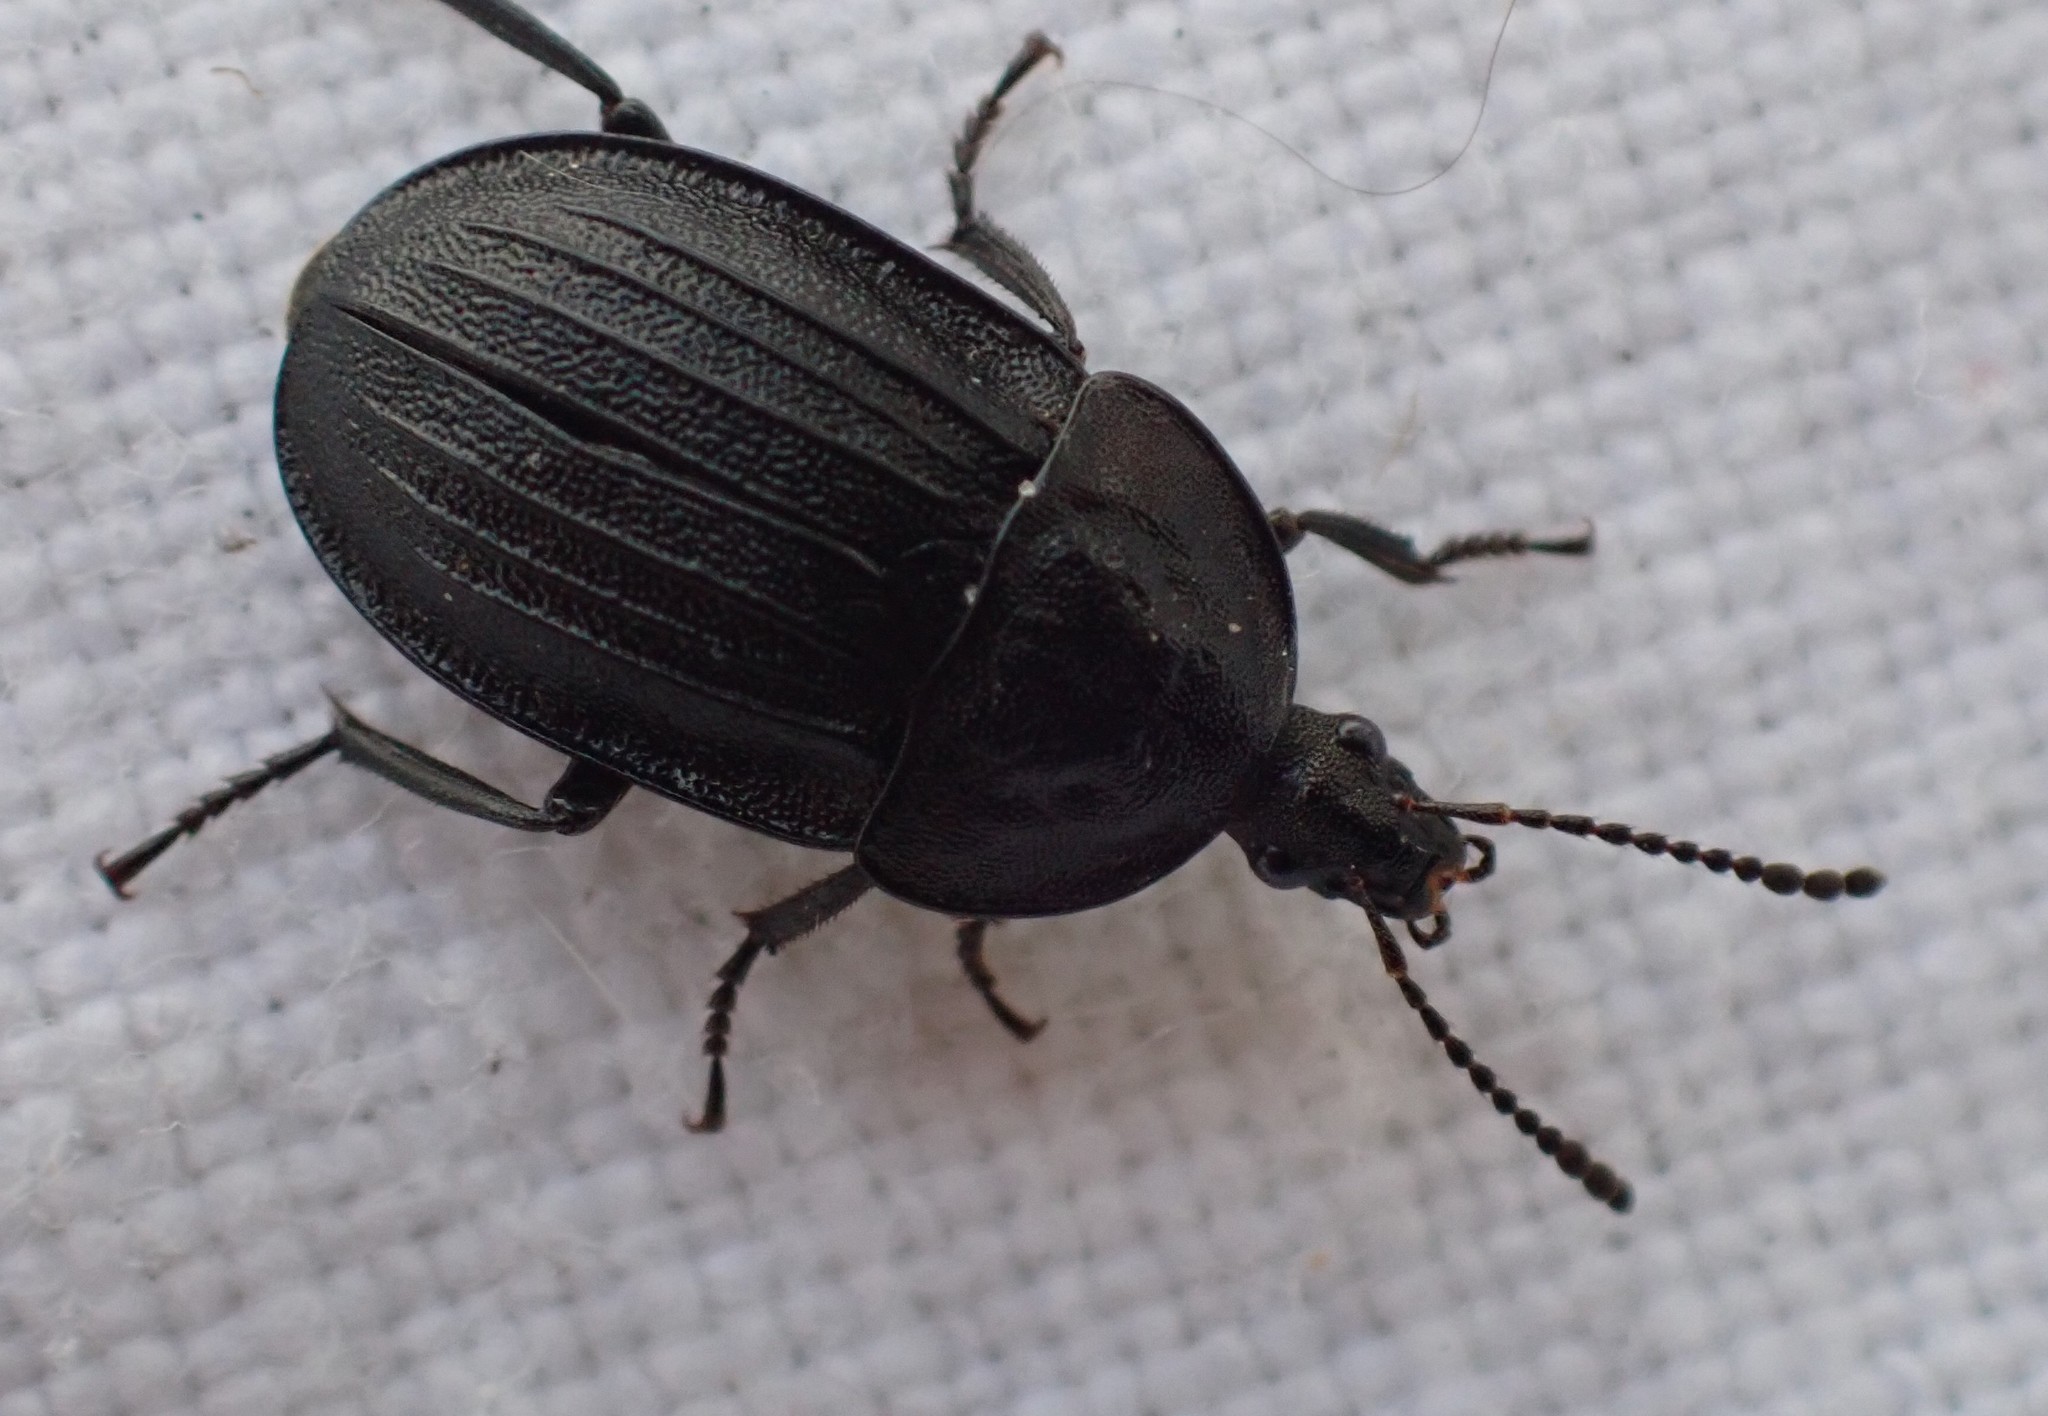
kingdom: Animalia
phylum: Arthropoda
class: Insecta
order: Coleoptera
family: Staphylinidae
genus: Silpha
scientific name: Silpha atrata
